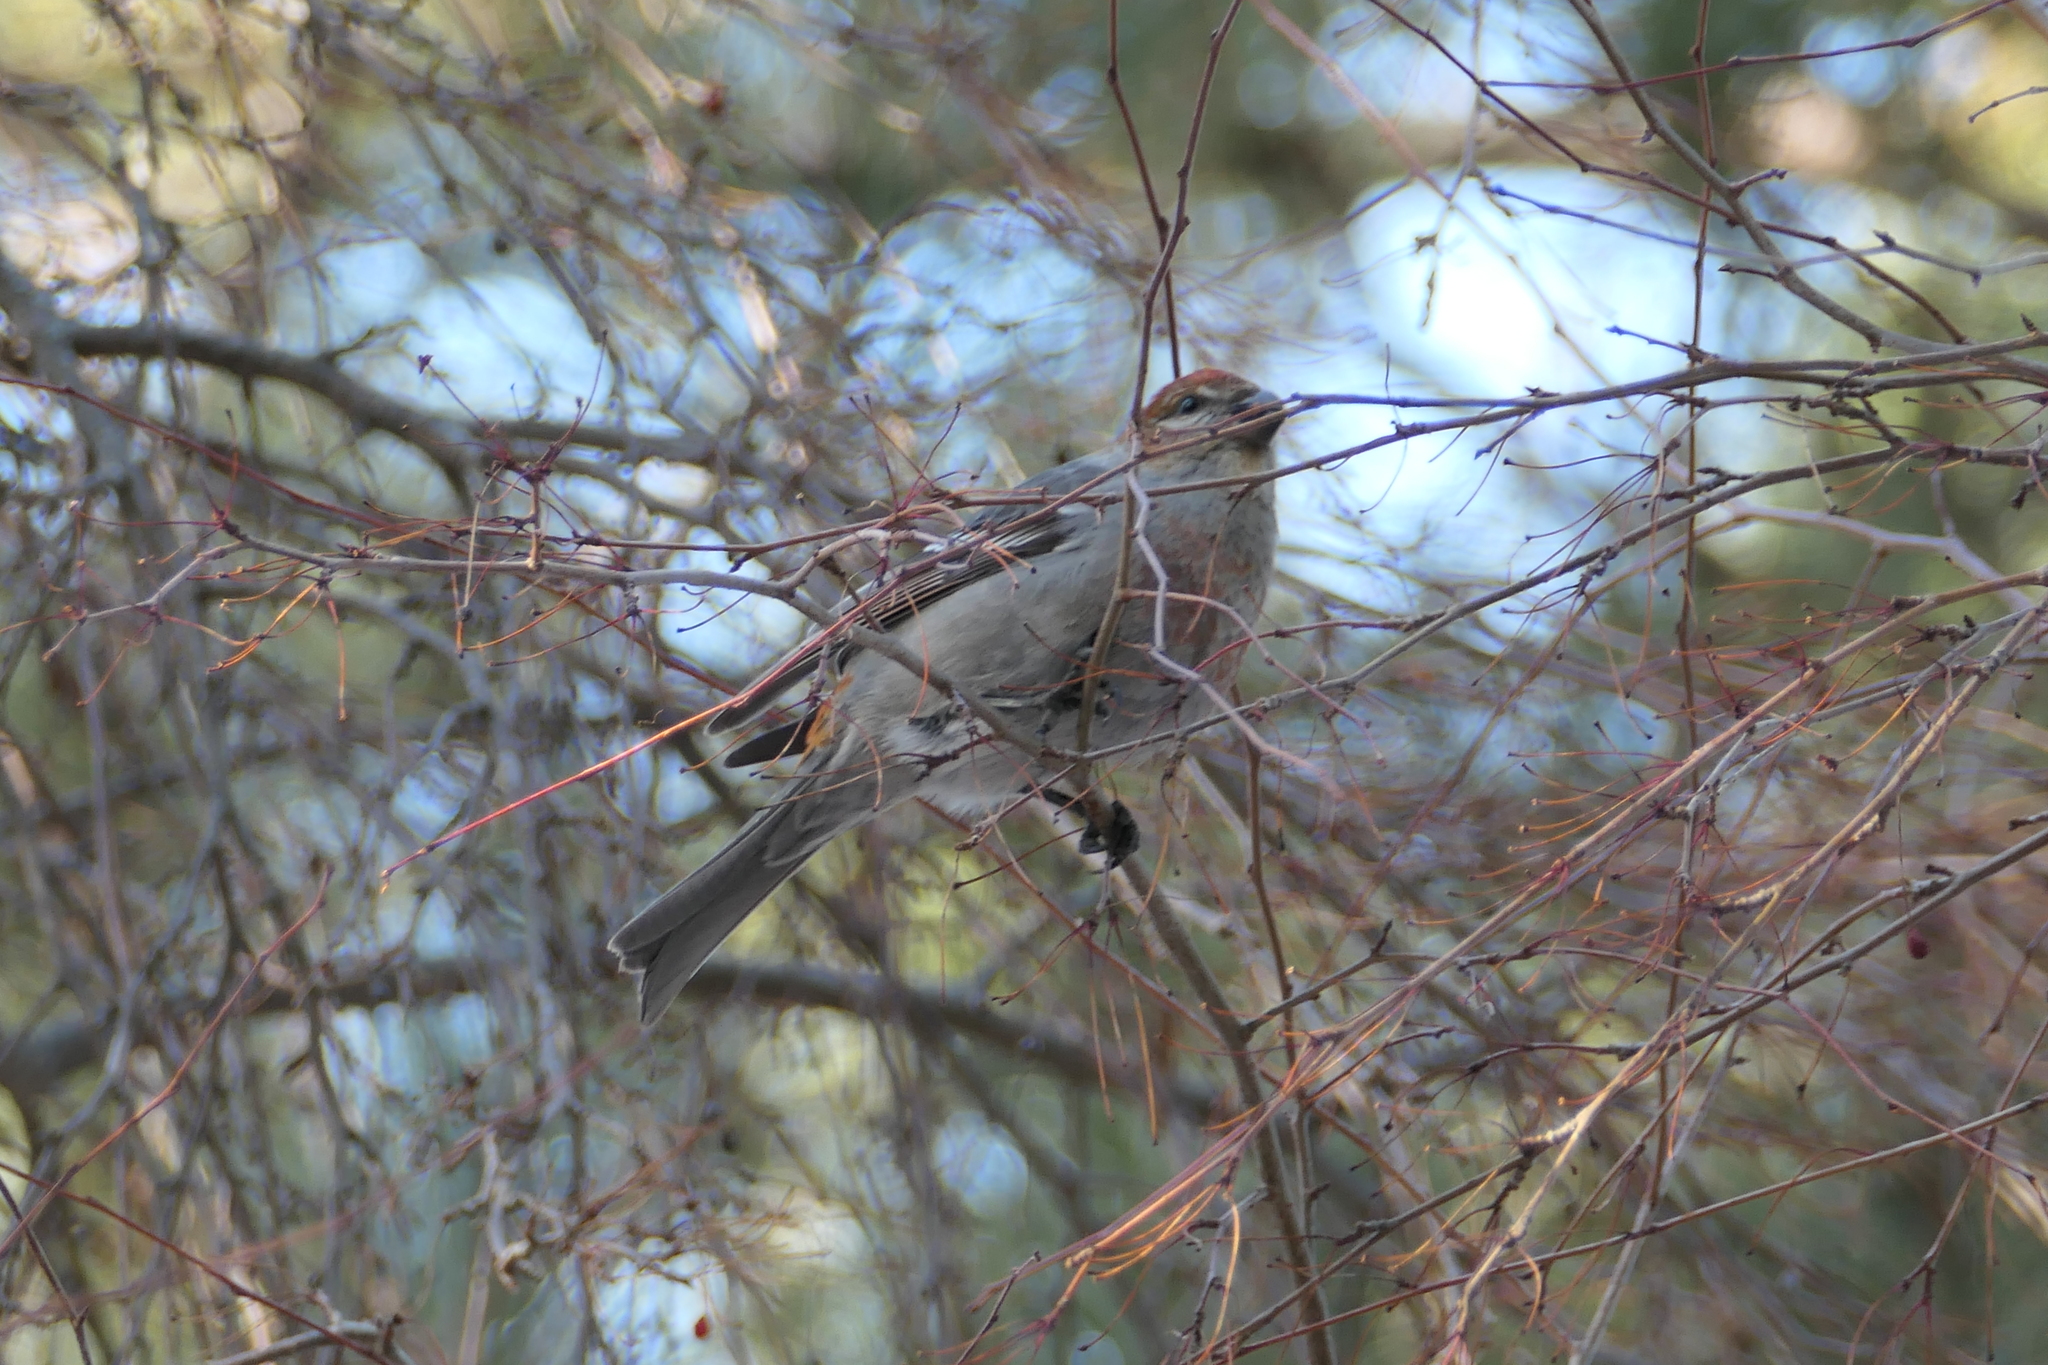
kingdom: Animalia
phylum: Chordata
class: Aves
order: Passeriformes
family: Fringillidae
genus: Pinicola
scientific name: Pinicola enucleator
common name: Pine grosbeak
